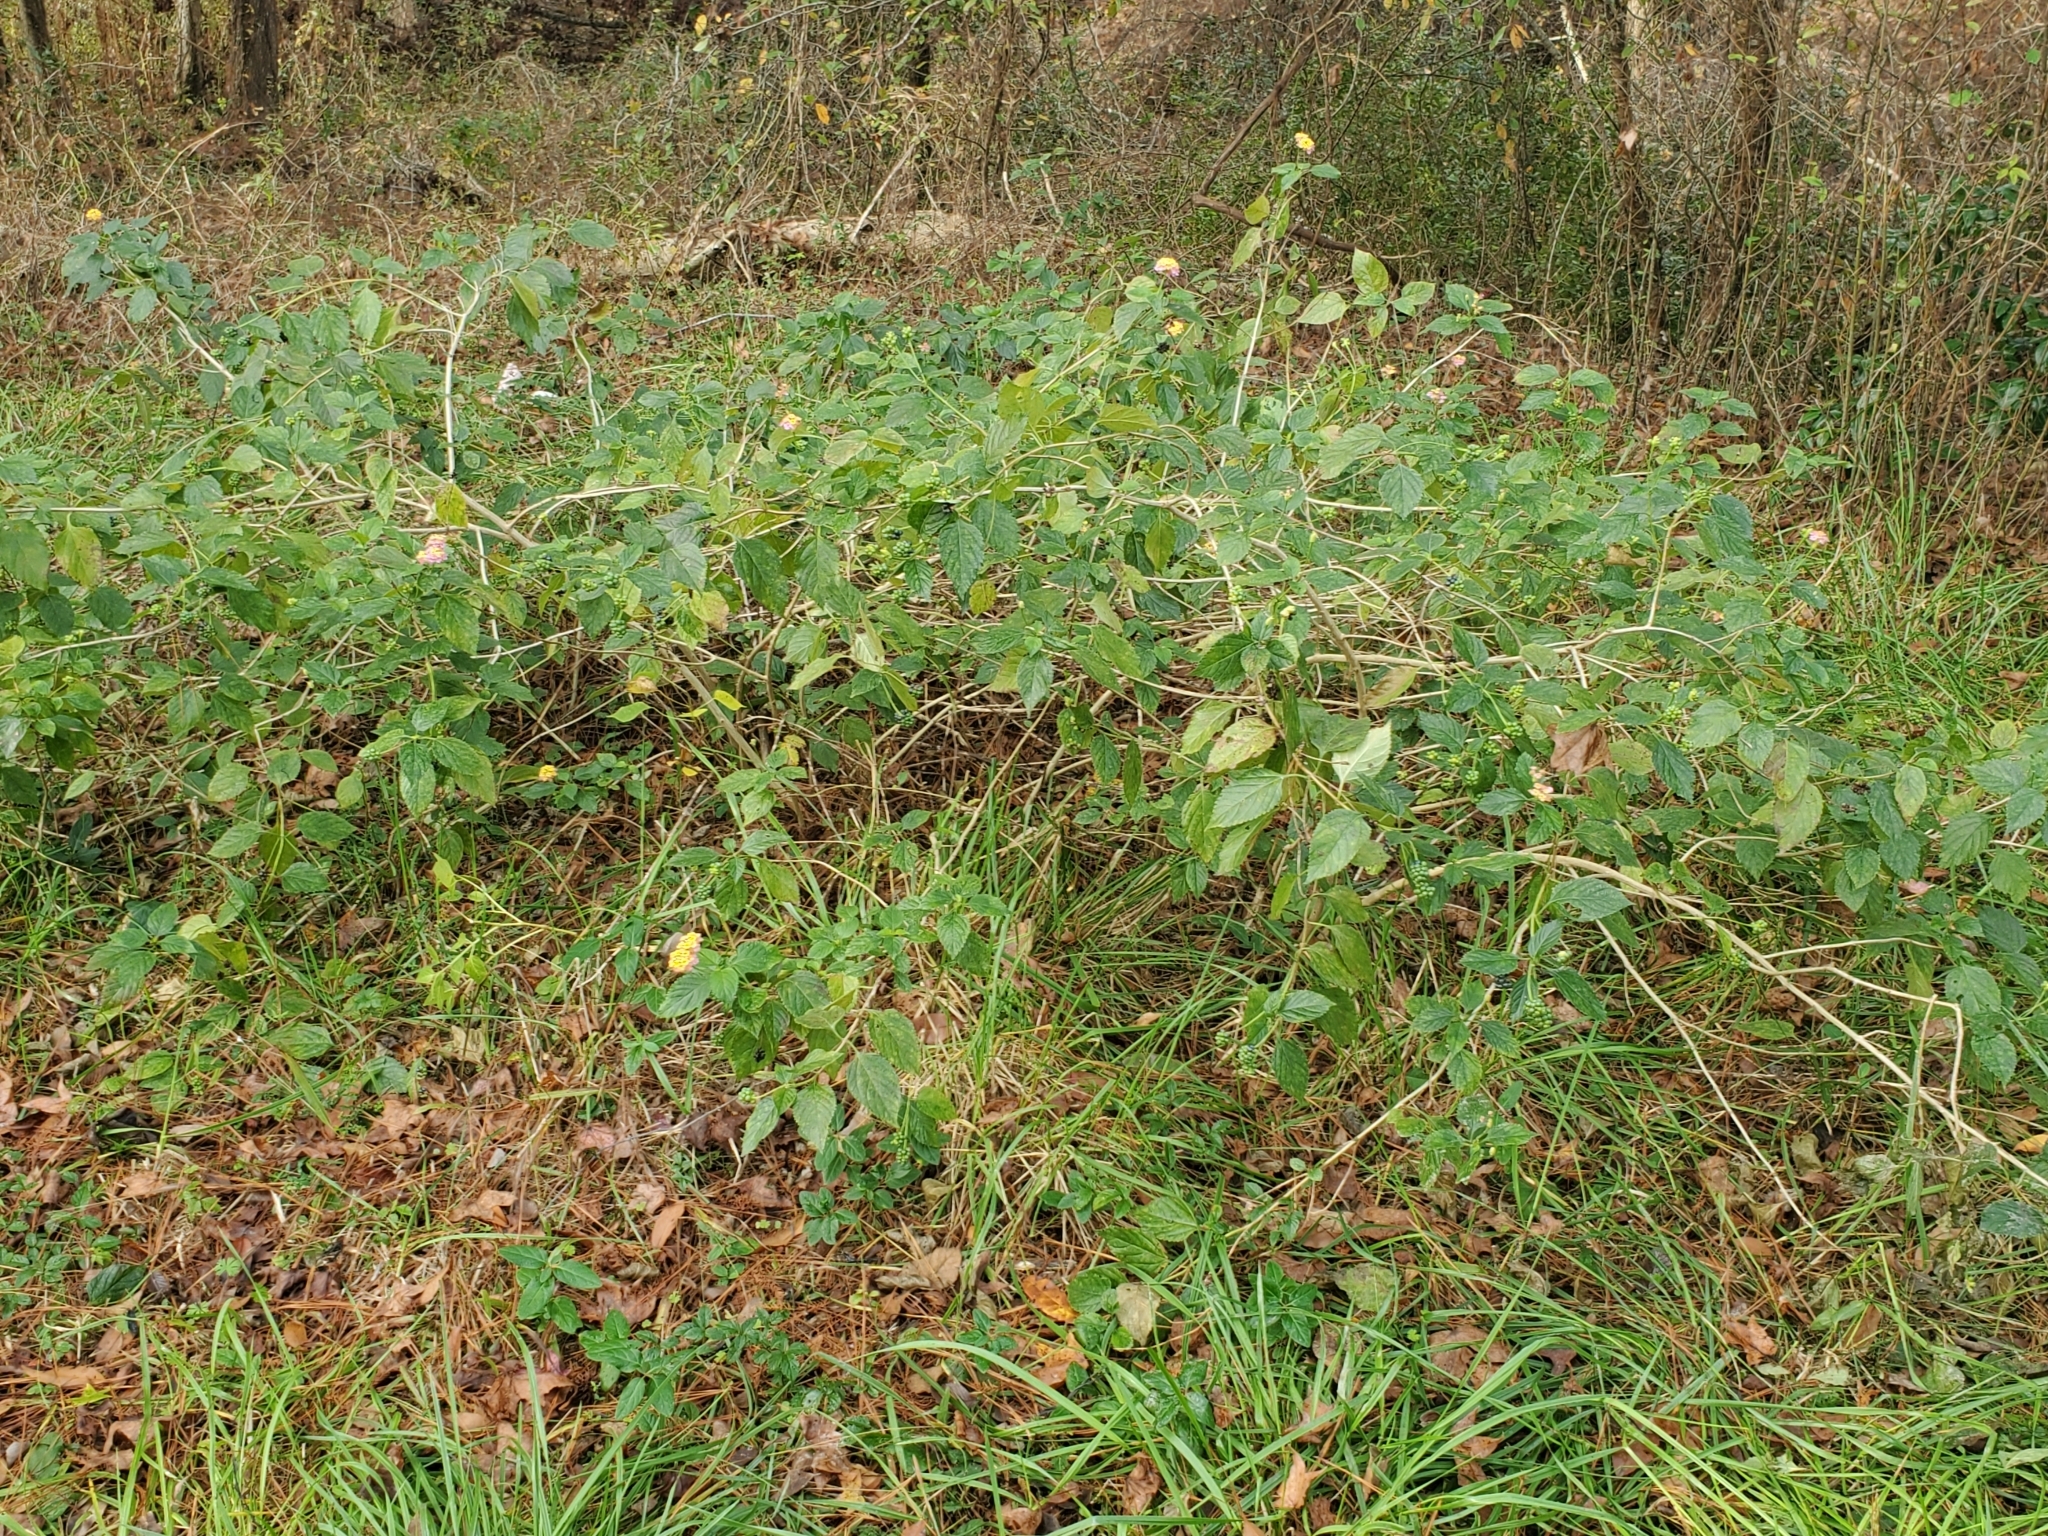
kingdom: Plantae
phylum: Tracheophyta
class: Magnoliopsida
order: Lamiales
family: Verbenaceae
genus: Lantana
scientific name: Lantana camara
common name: Lantana
